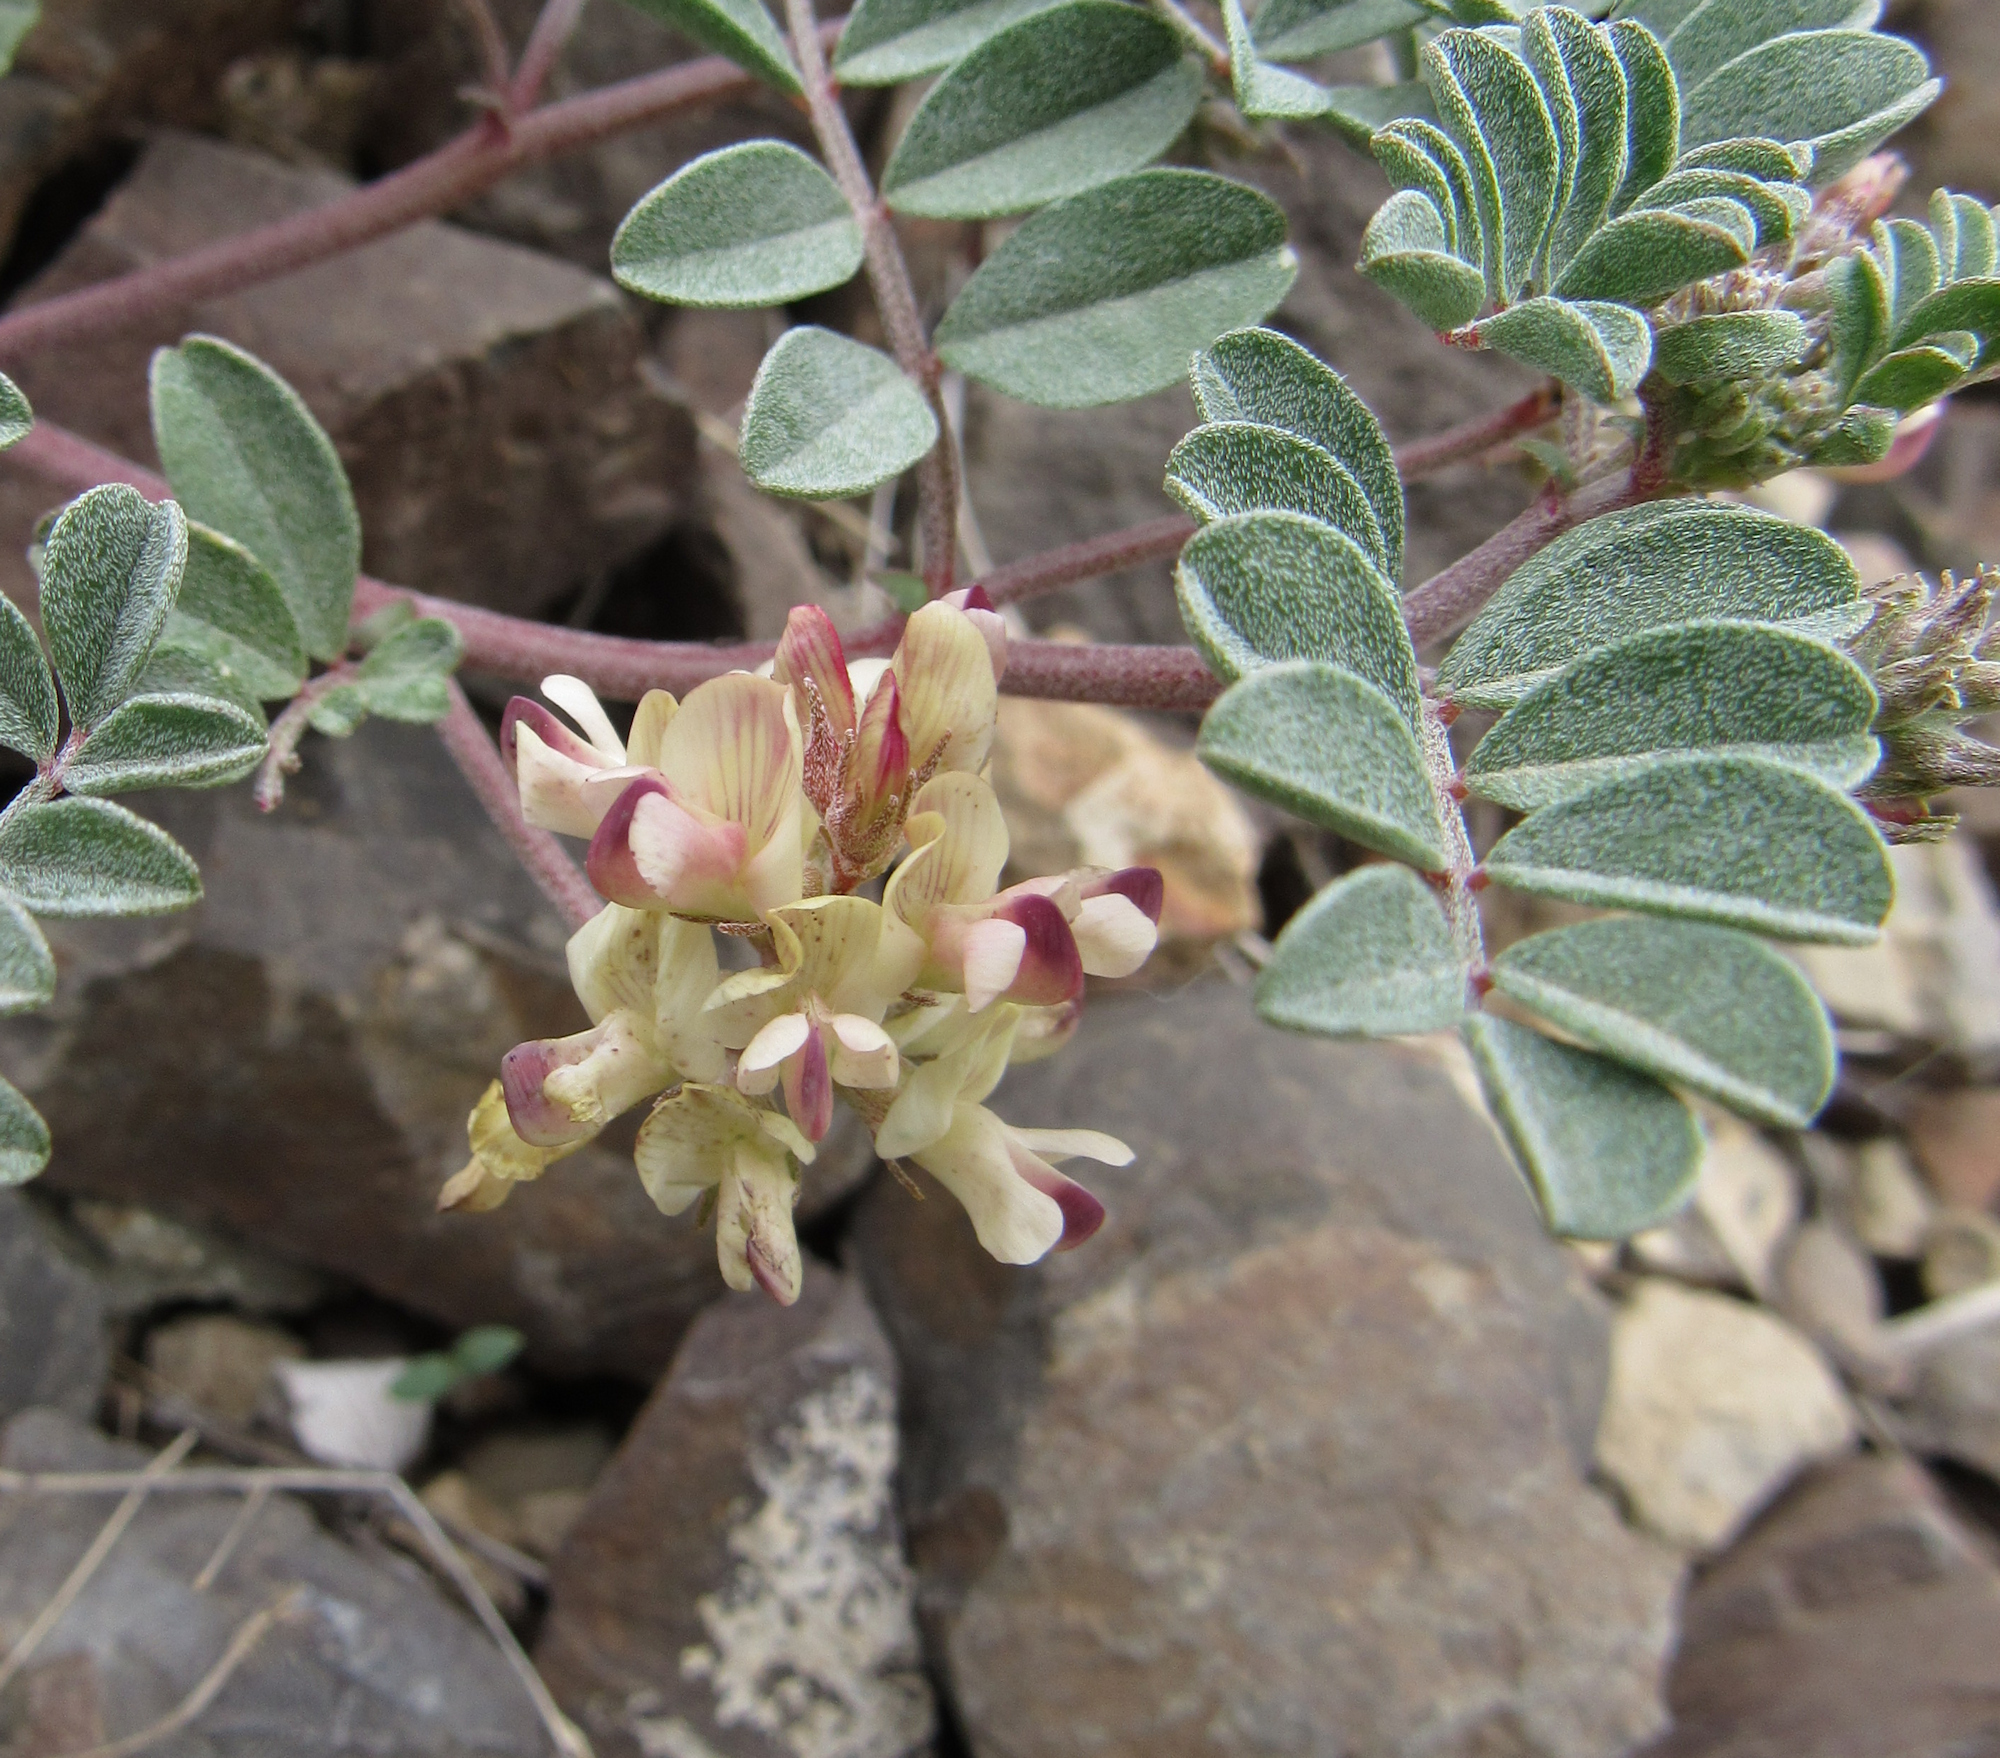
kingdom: Plantae
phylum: Tracheophyta
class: Magnoliopsida
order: Fabales
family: Fabaceae
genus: Astragalus
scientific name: Astragalus amblytropis
